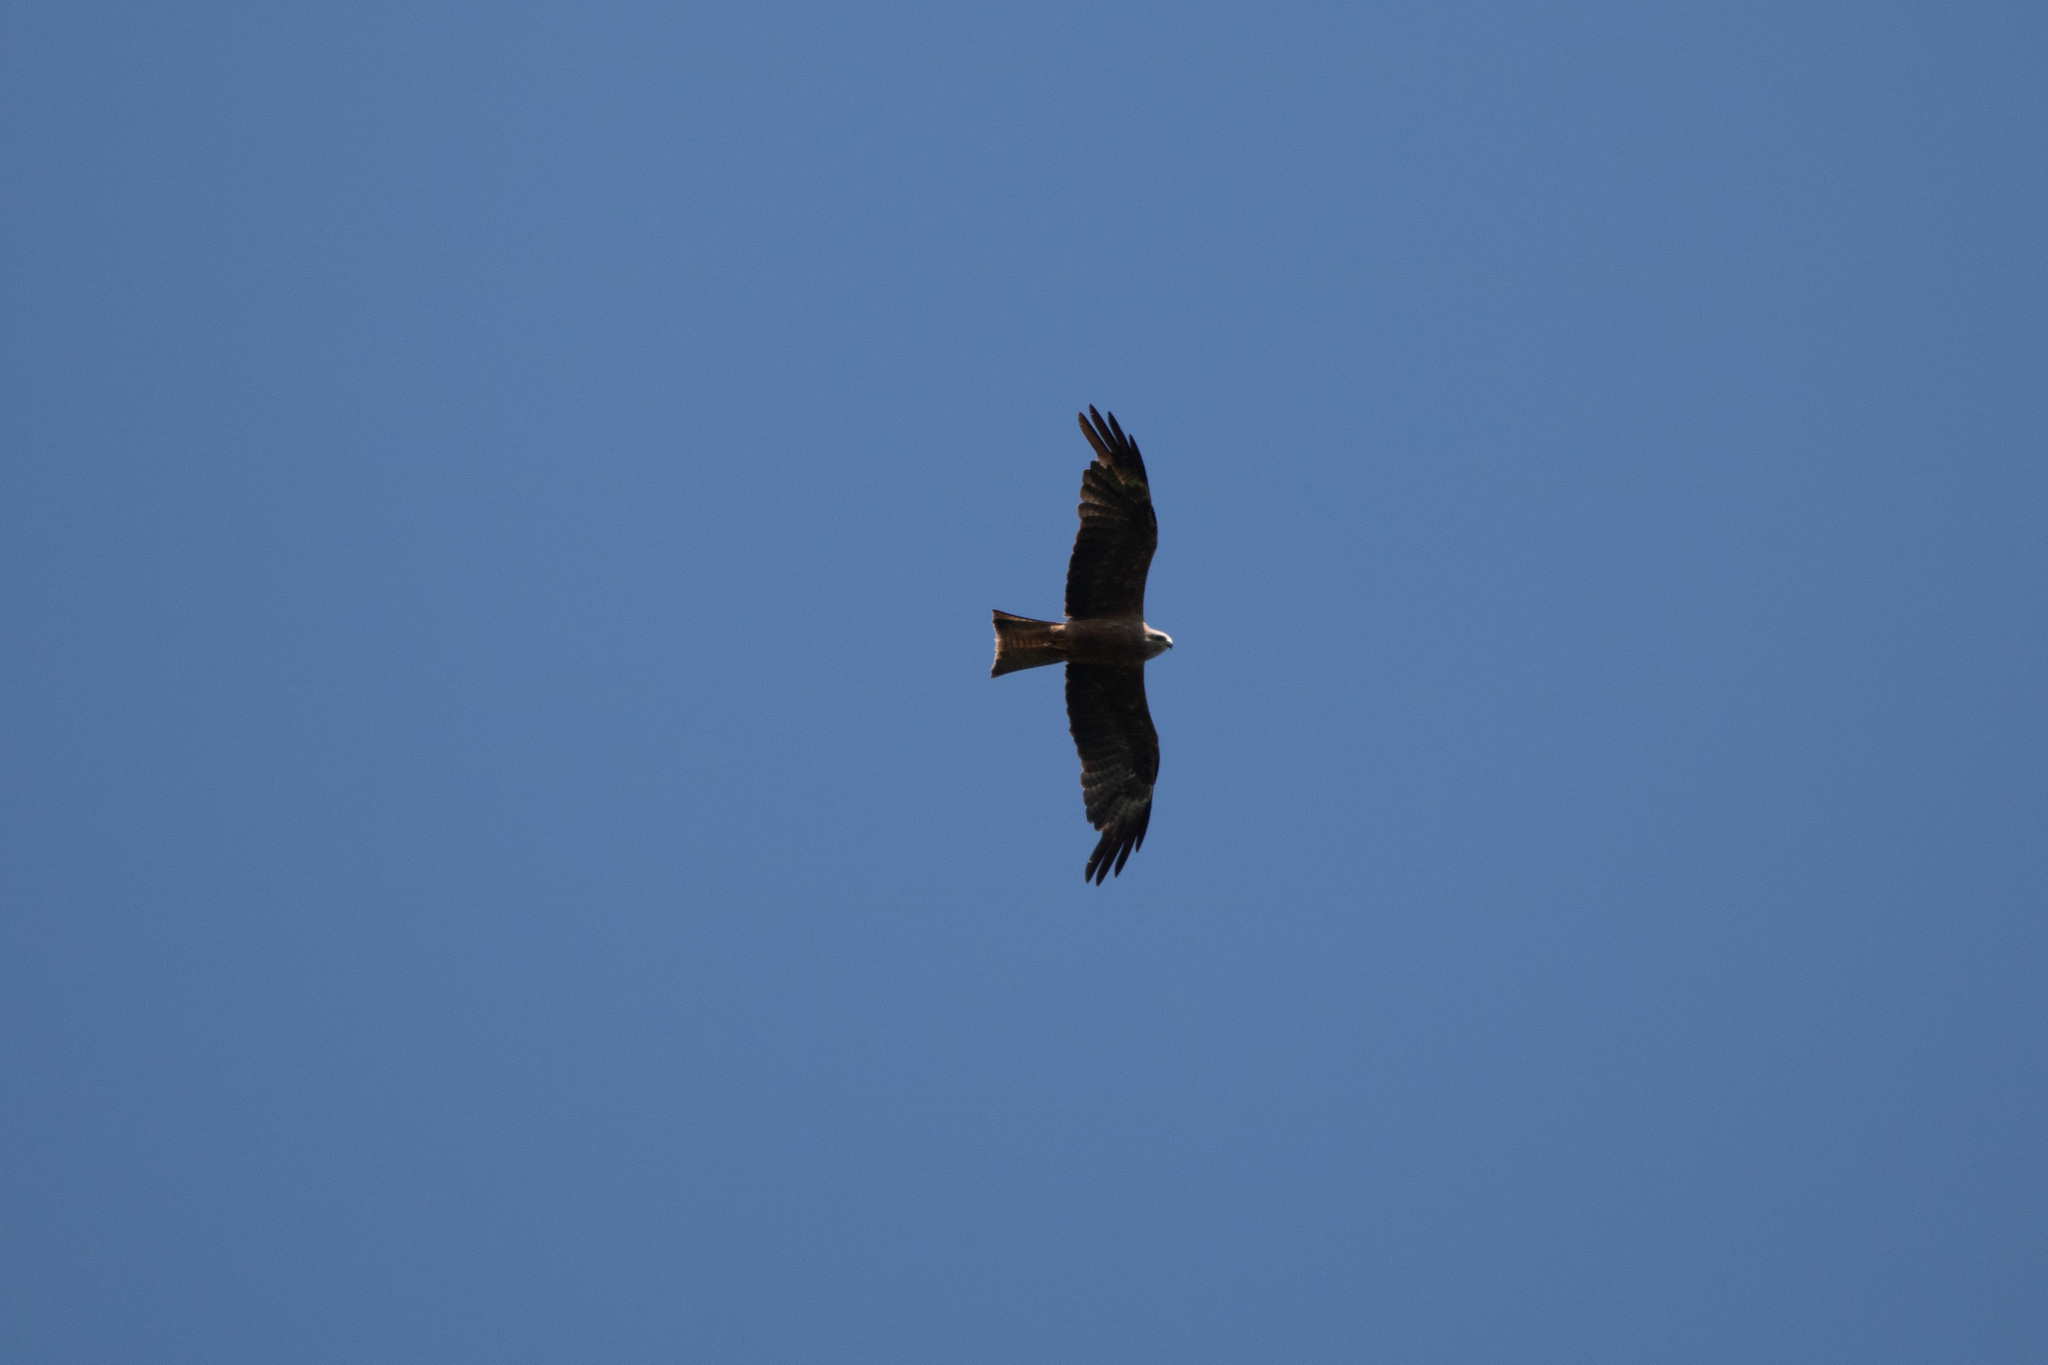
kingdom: Animalia
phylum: Chordata
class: Aves
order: Accipitriformes
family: Accipitridae
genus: Milvus
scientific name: Milvus migrans
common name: Black kite
